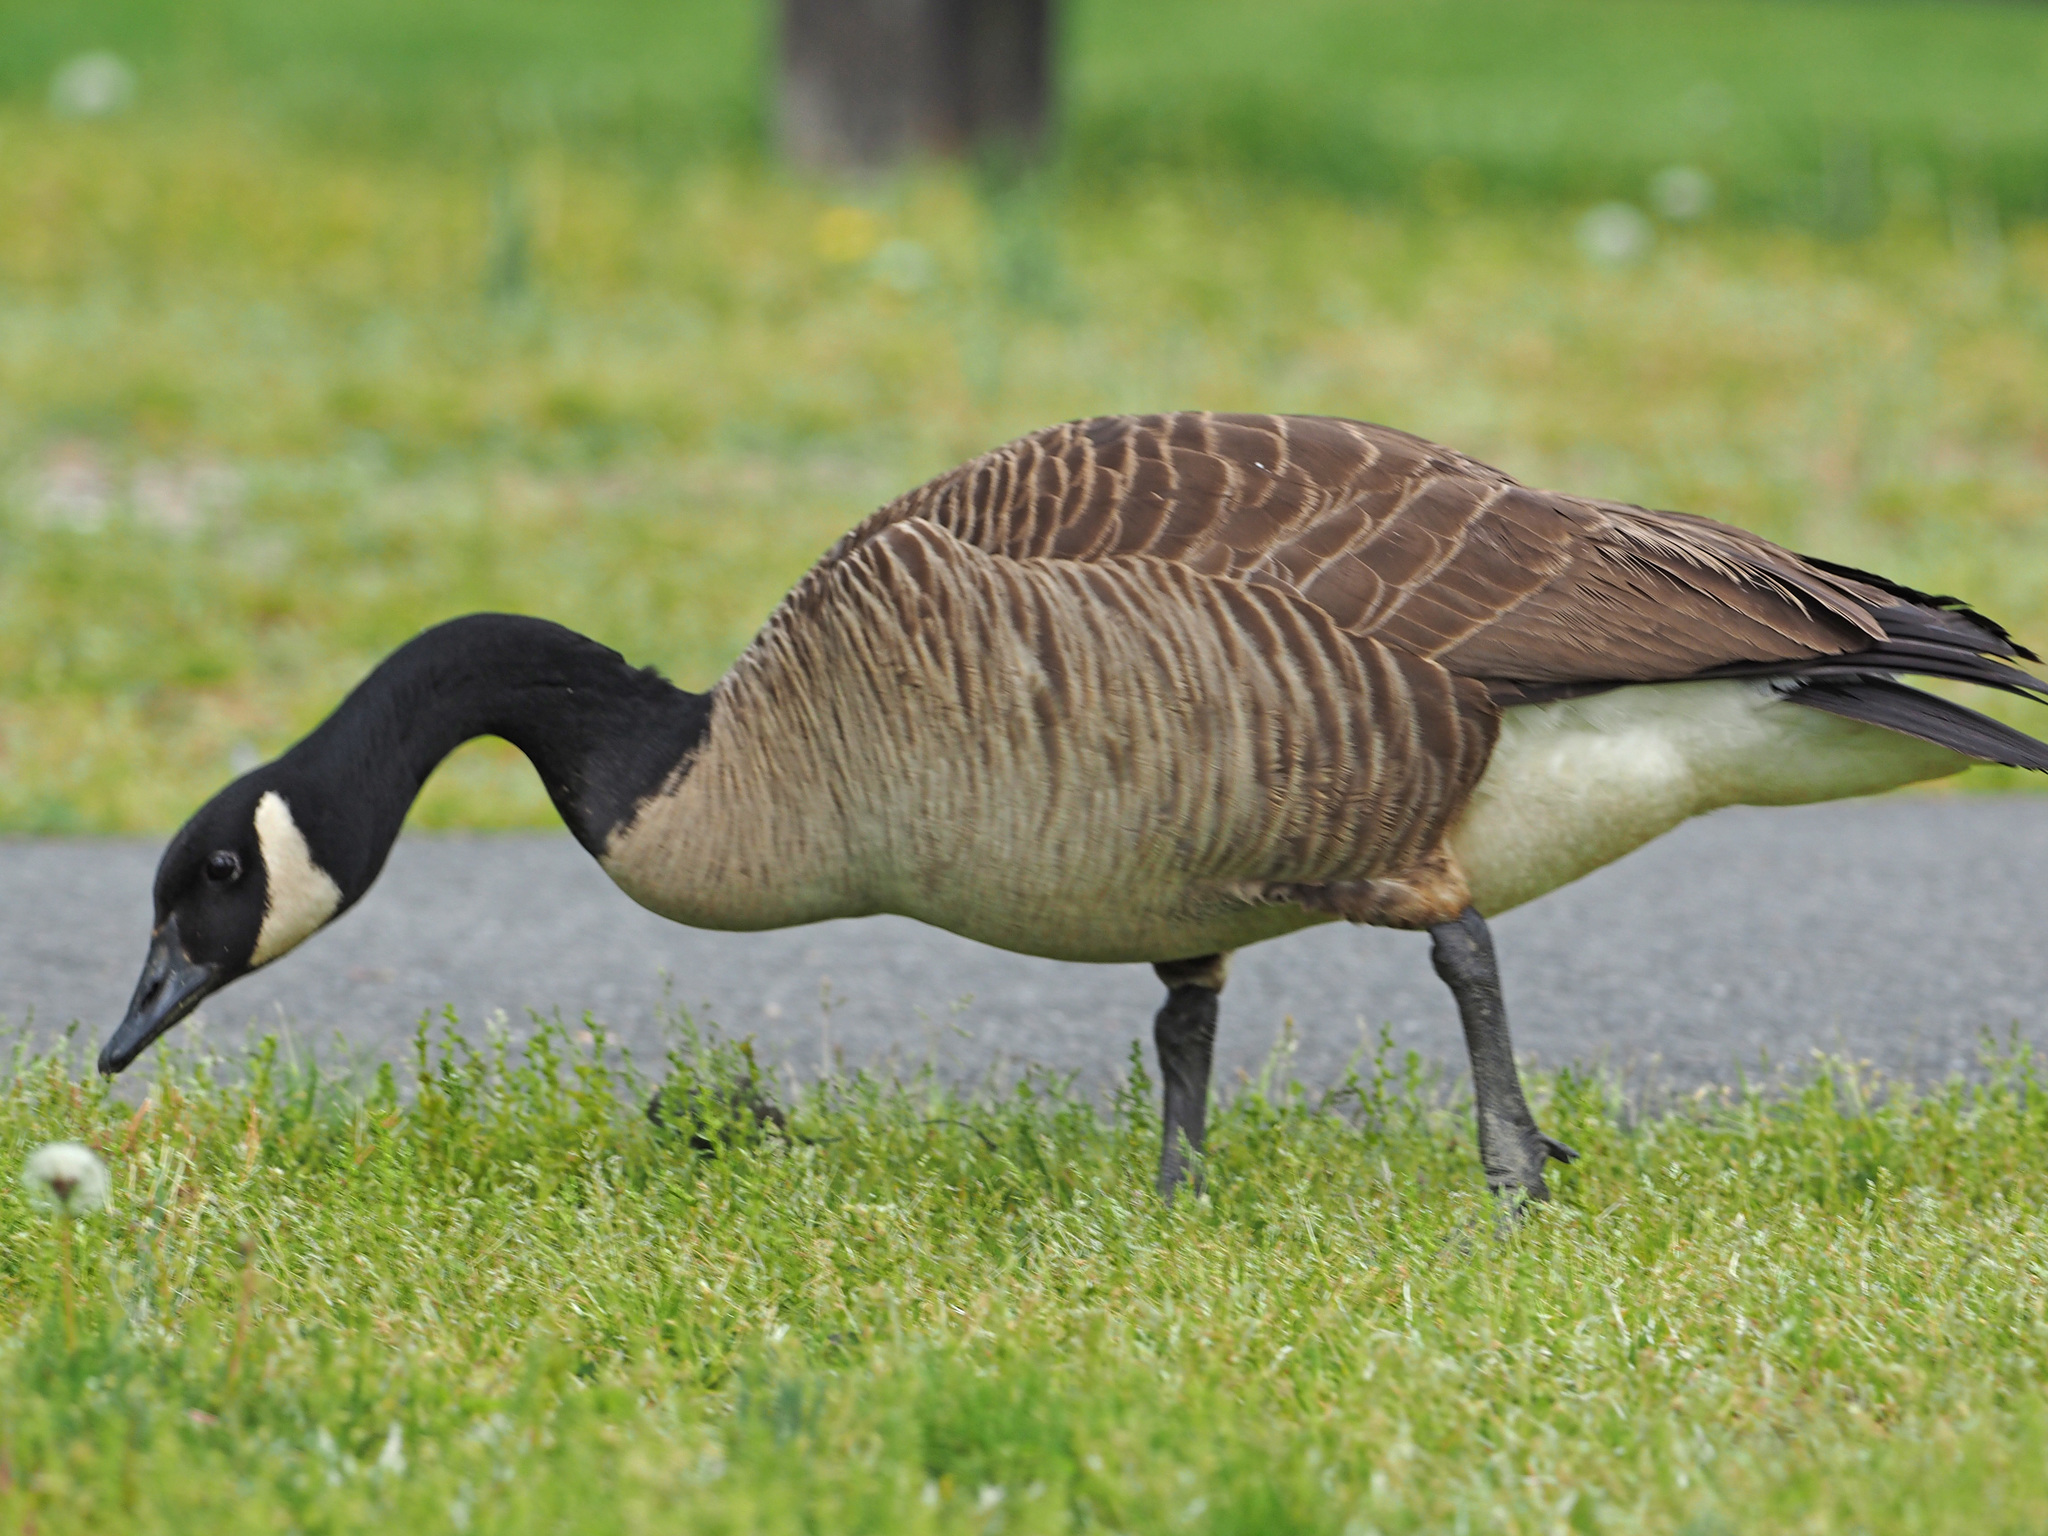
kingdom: Animalia
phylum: Chordata
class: Aves
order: Anseriformes
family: Anatidae
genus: Branta
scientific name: Branta canadensis
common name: Canada goose
